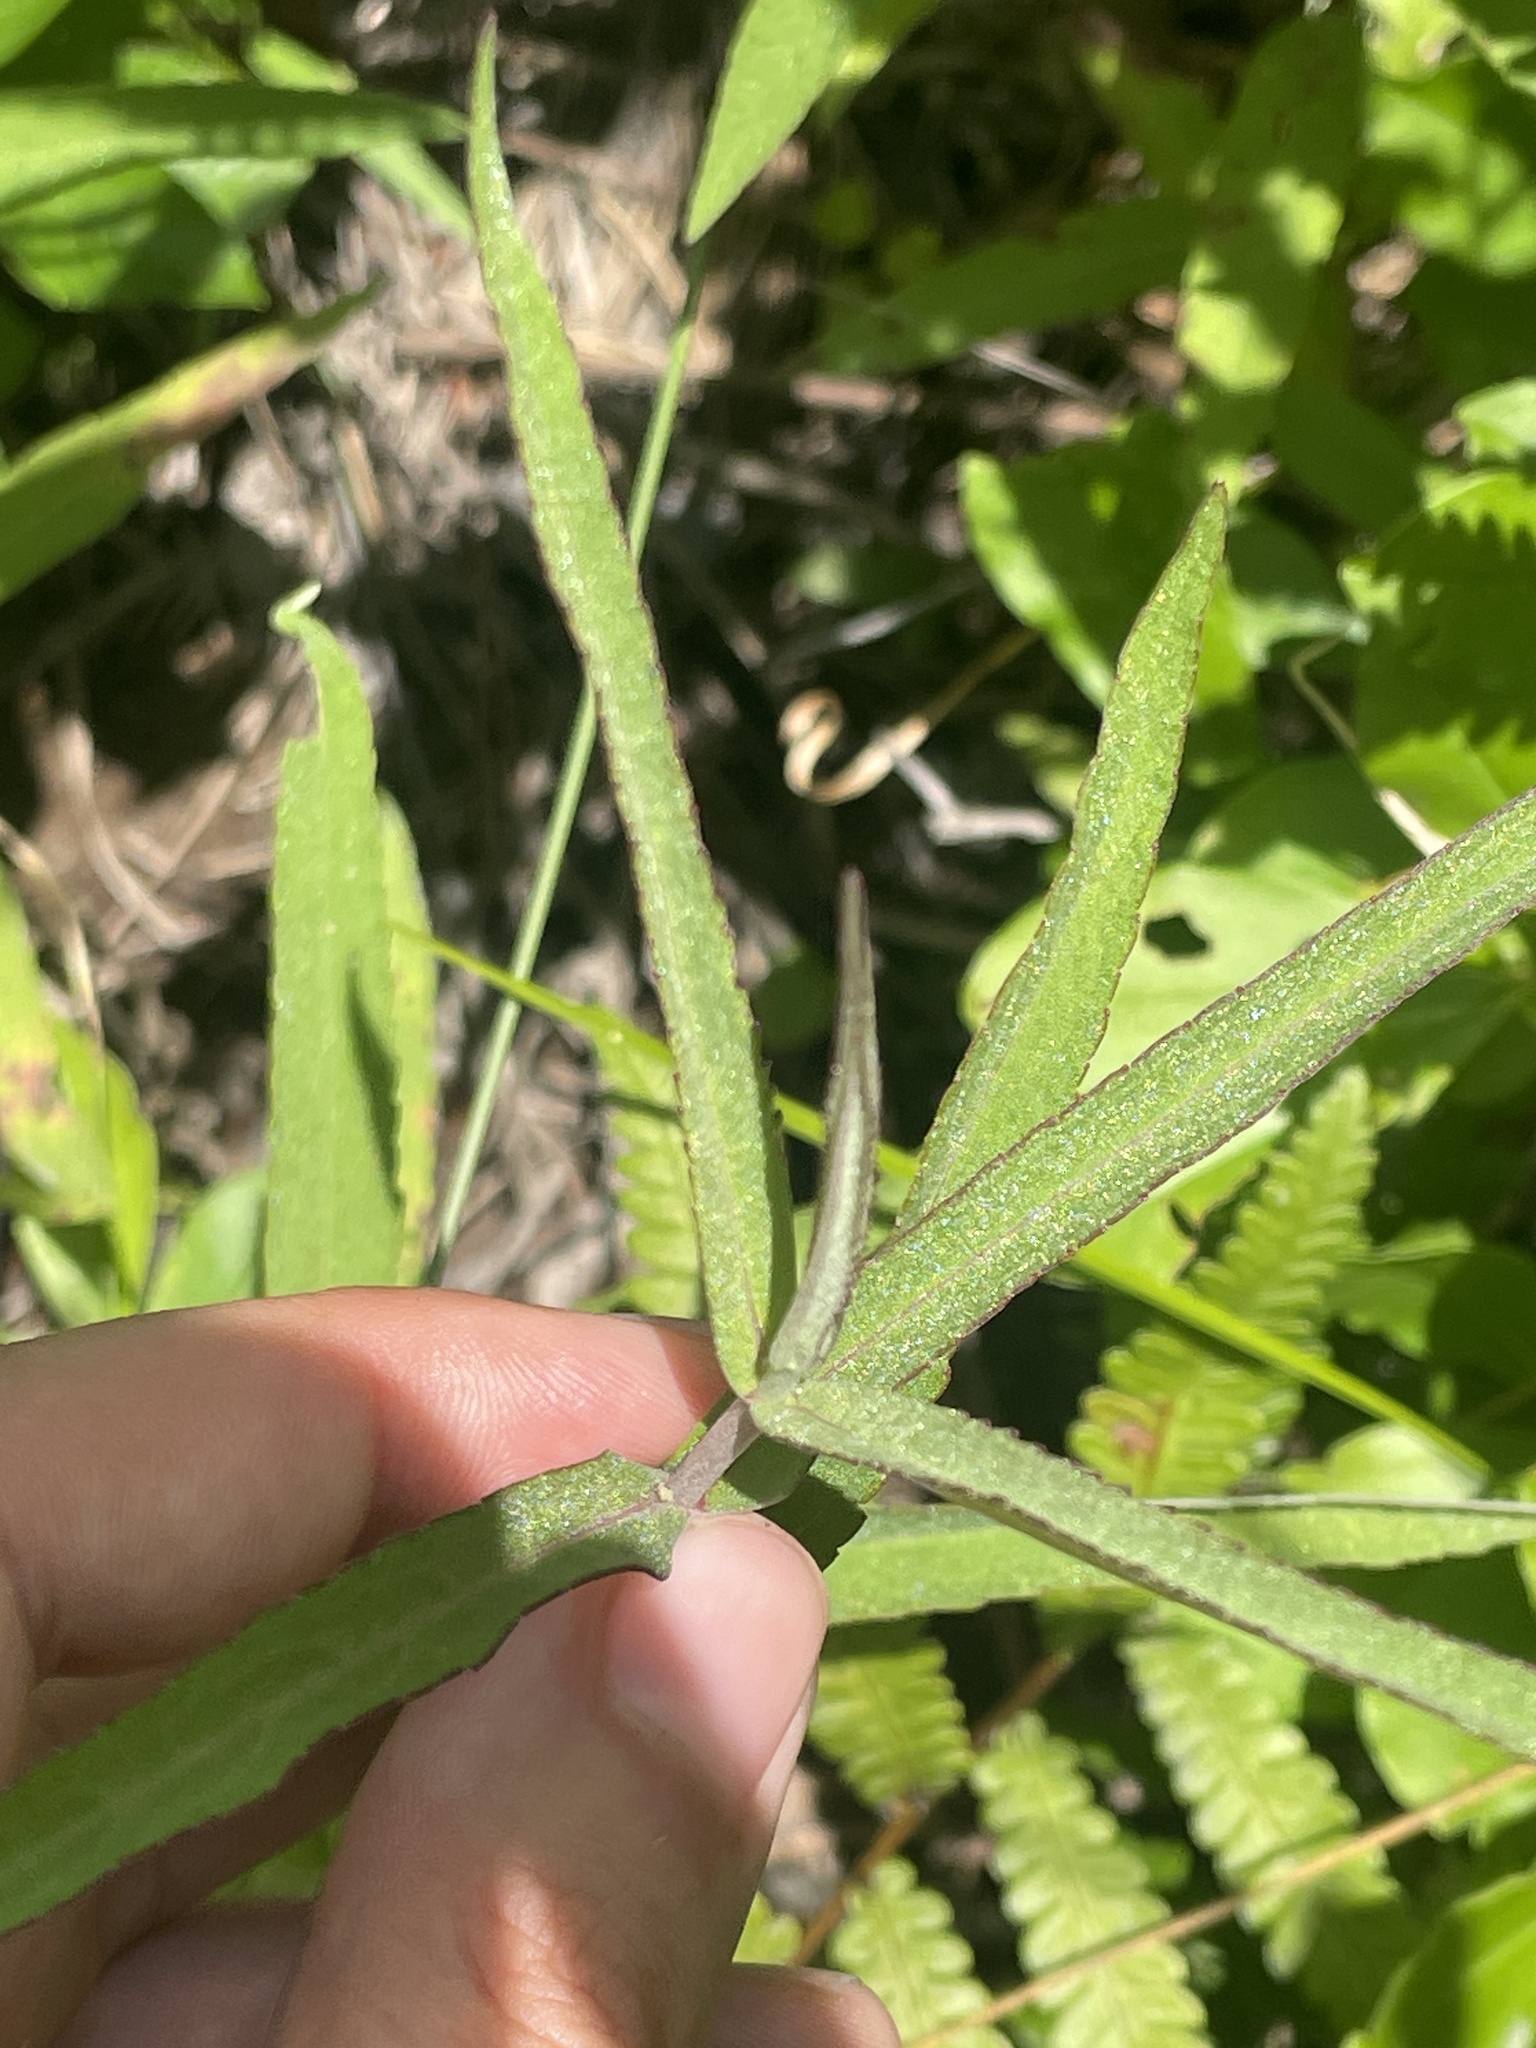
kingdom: Plantae
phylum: Tracheophyta
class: Magnoliopsida
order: Asterales
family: Asteraceae
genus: Eupatorium
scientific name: Eupatorium resinosum
